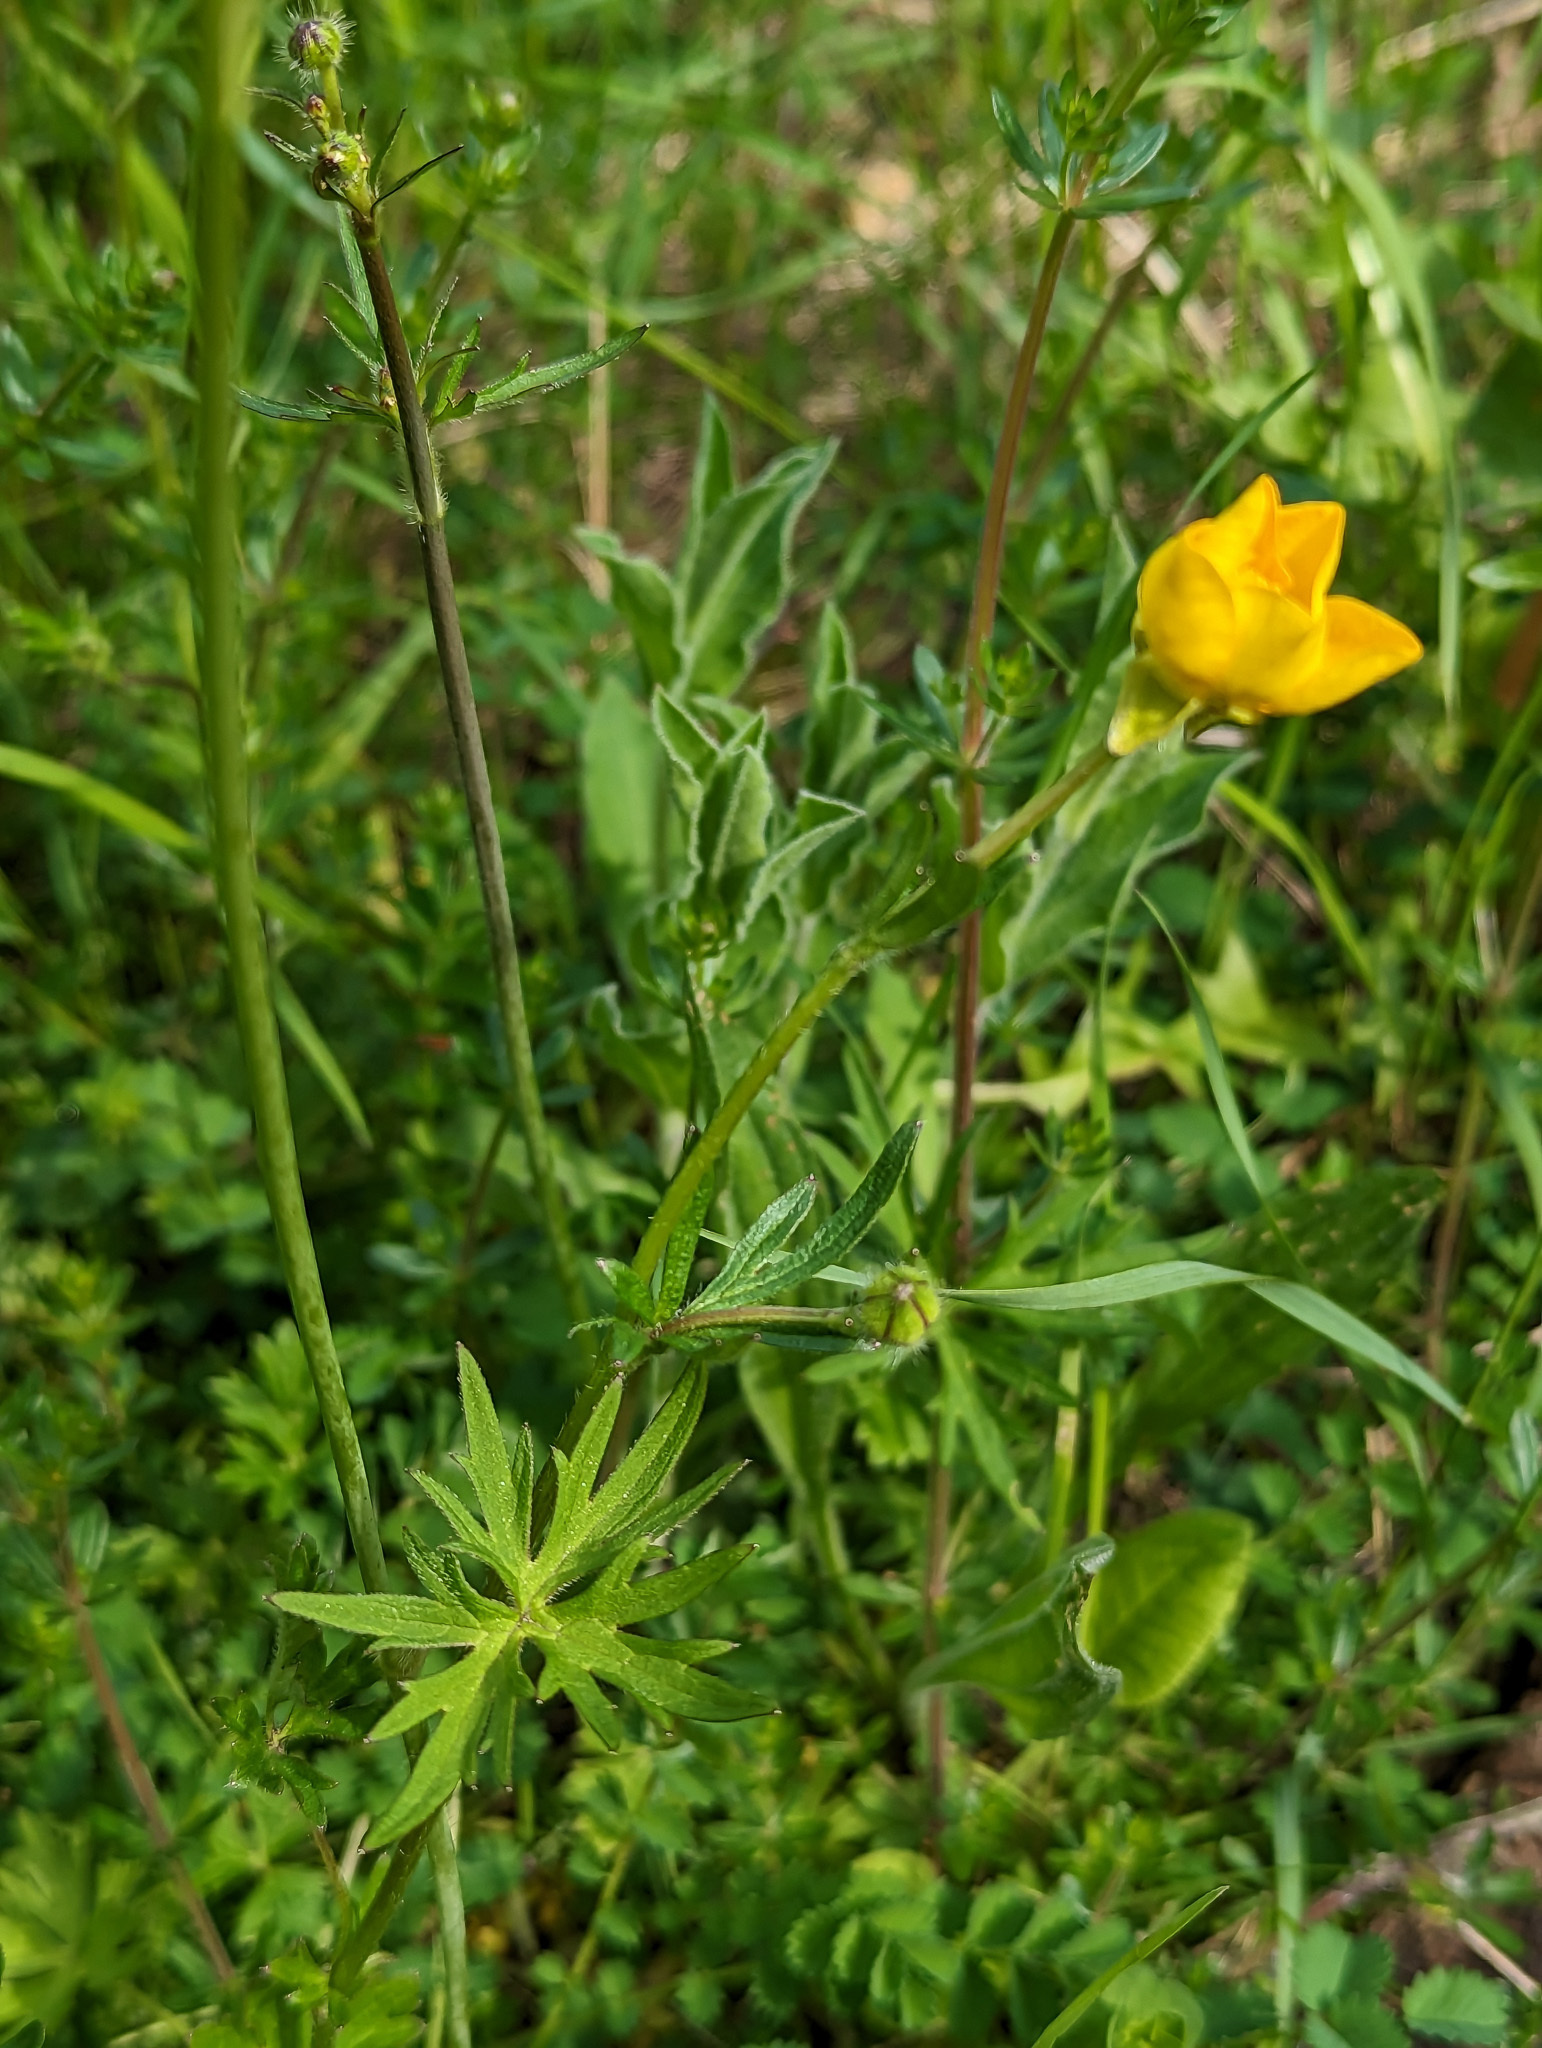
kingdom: Plantae
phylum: Tracheophyta
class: Magnoliopsida
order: Ranunculales
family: Ranunculaceae
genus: Ranunculus
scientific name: Ranunculus acris
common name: Meadow buttercup
